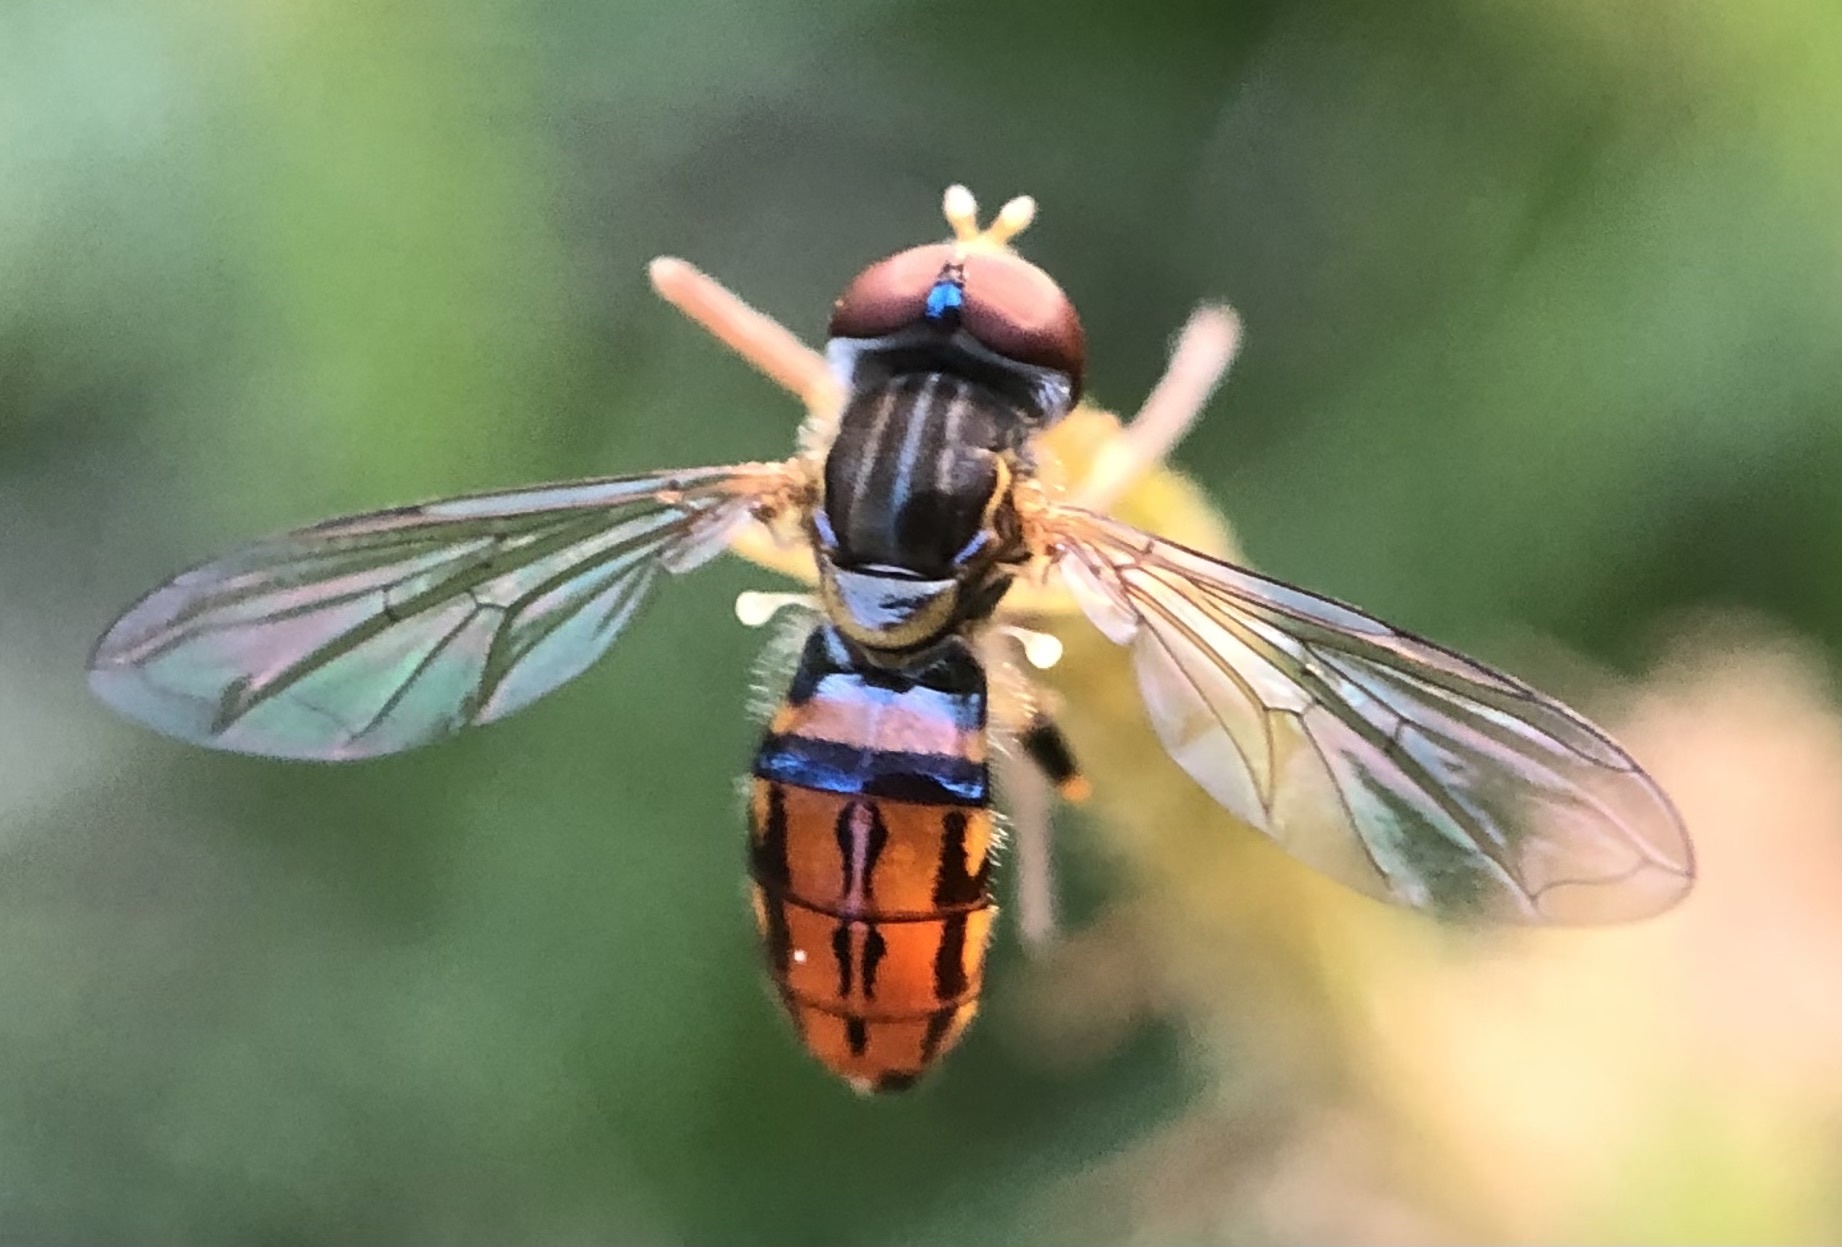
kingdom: Animalia
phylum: Arthropoda
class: Insecta
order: Diptera
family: Syrphidae
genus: Toxomerus
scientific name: Toxomerus boscii
